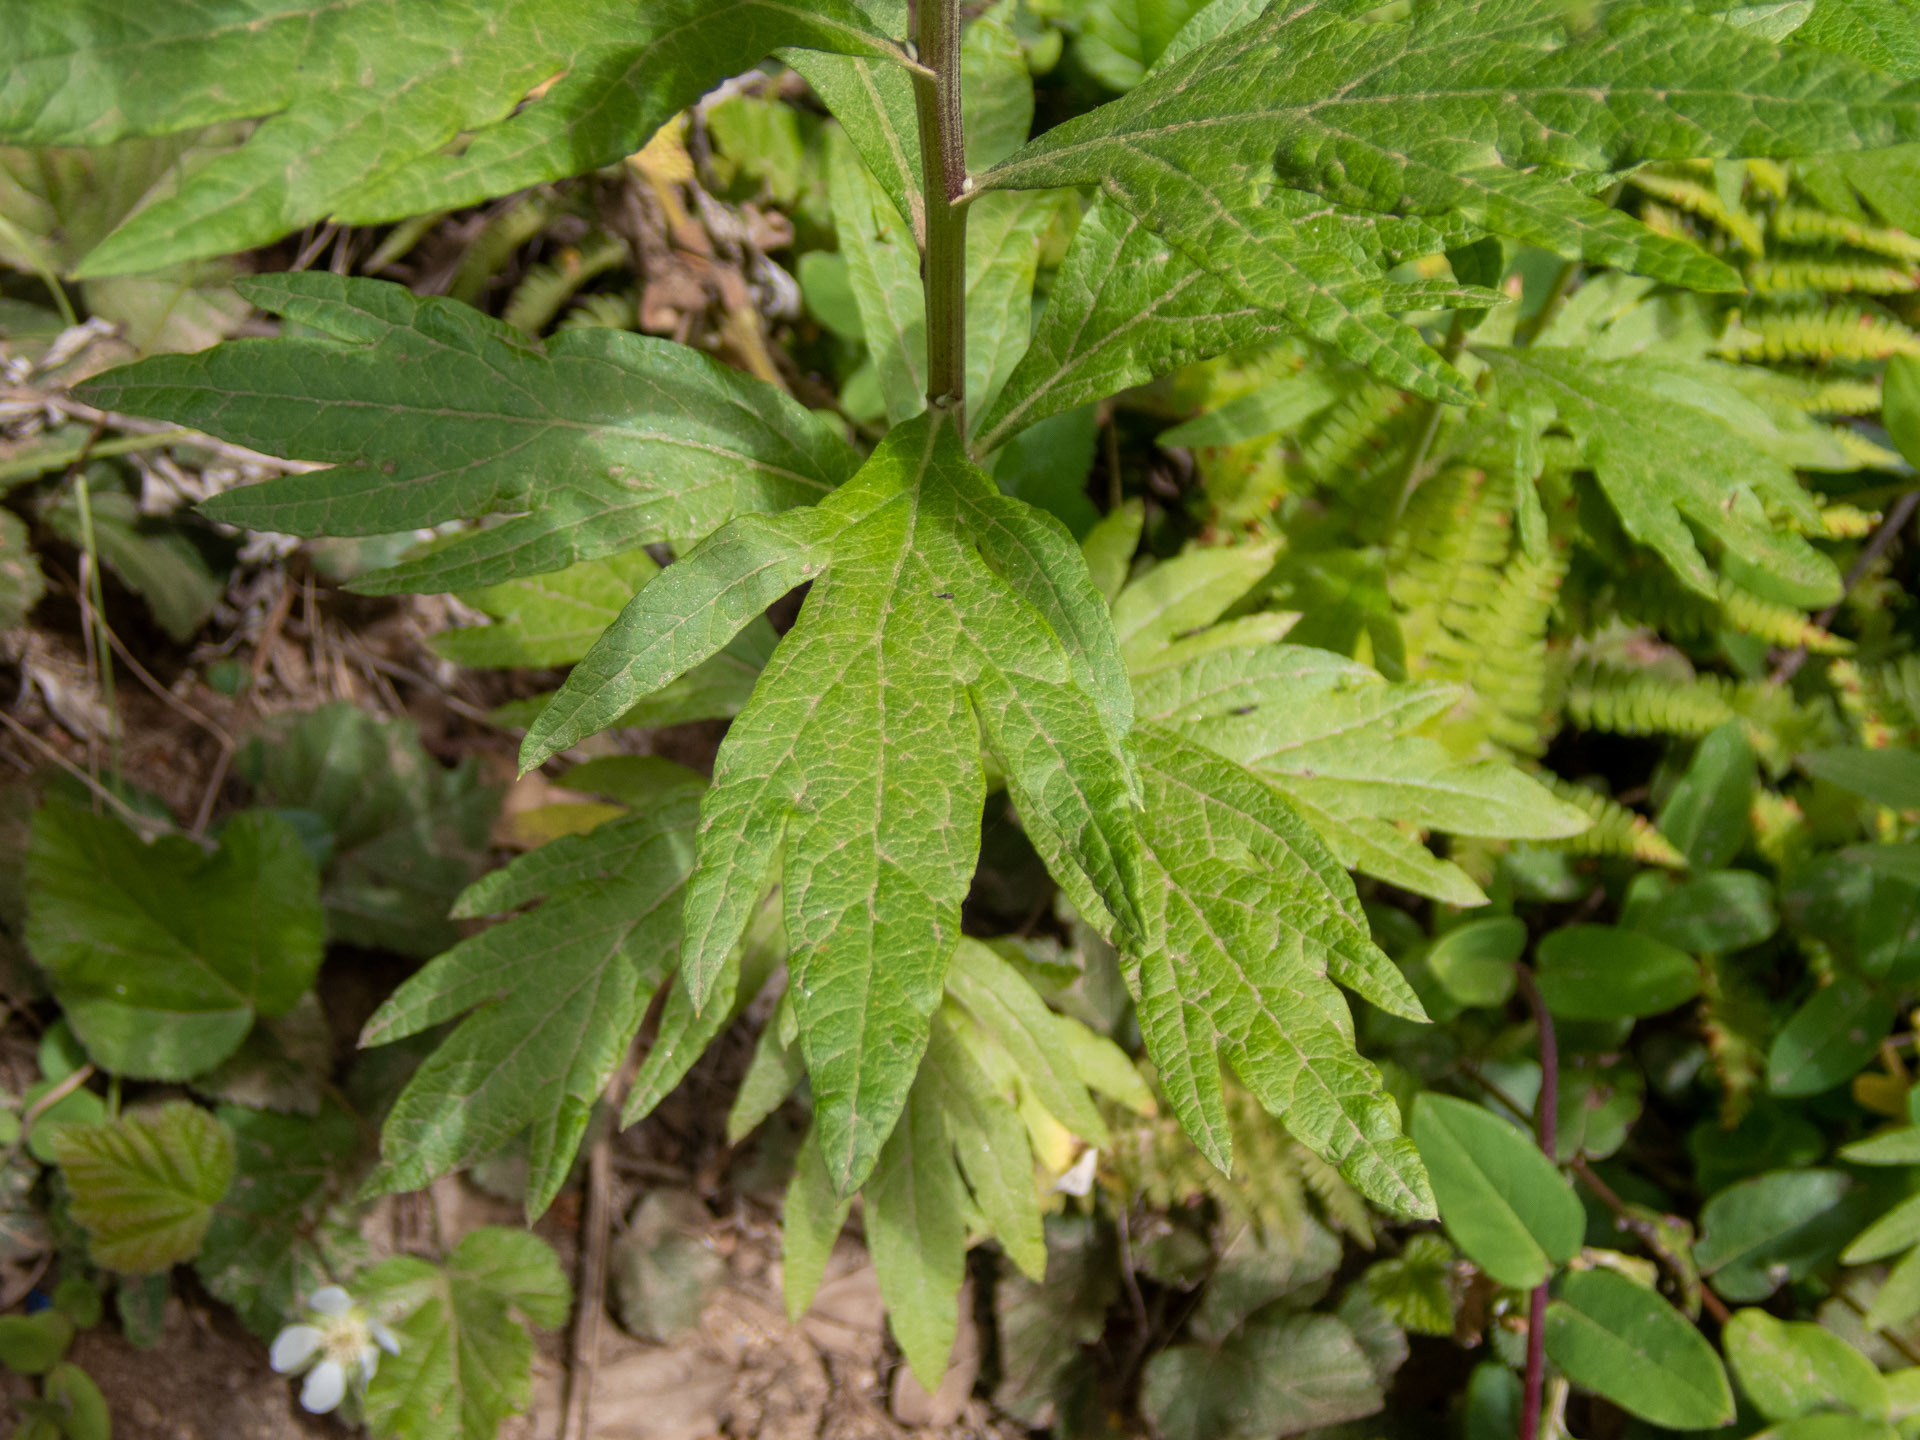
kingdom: Plantae
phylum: Tracheophyta
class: Magnoliopsida
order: Asterales
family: Asteraceae
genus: Artemisia
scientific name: Artemisia douglasiana
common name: Northwest mugwort
